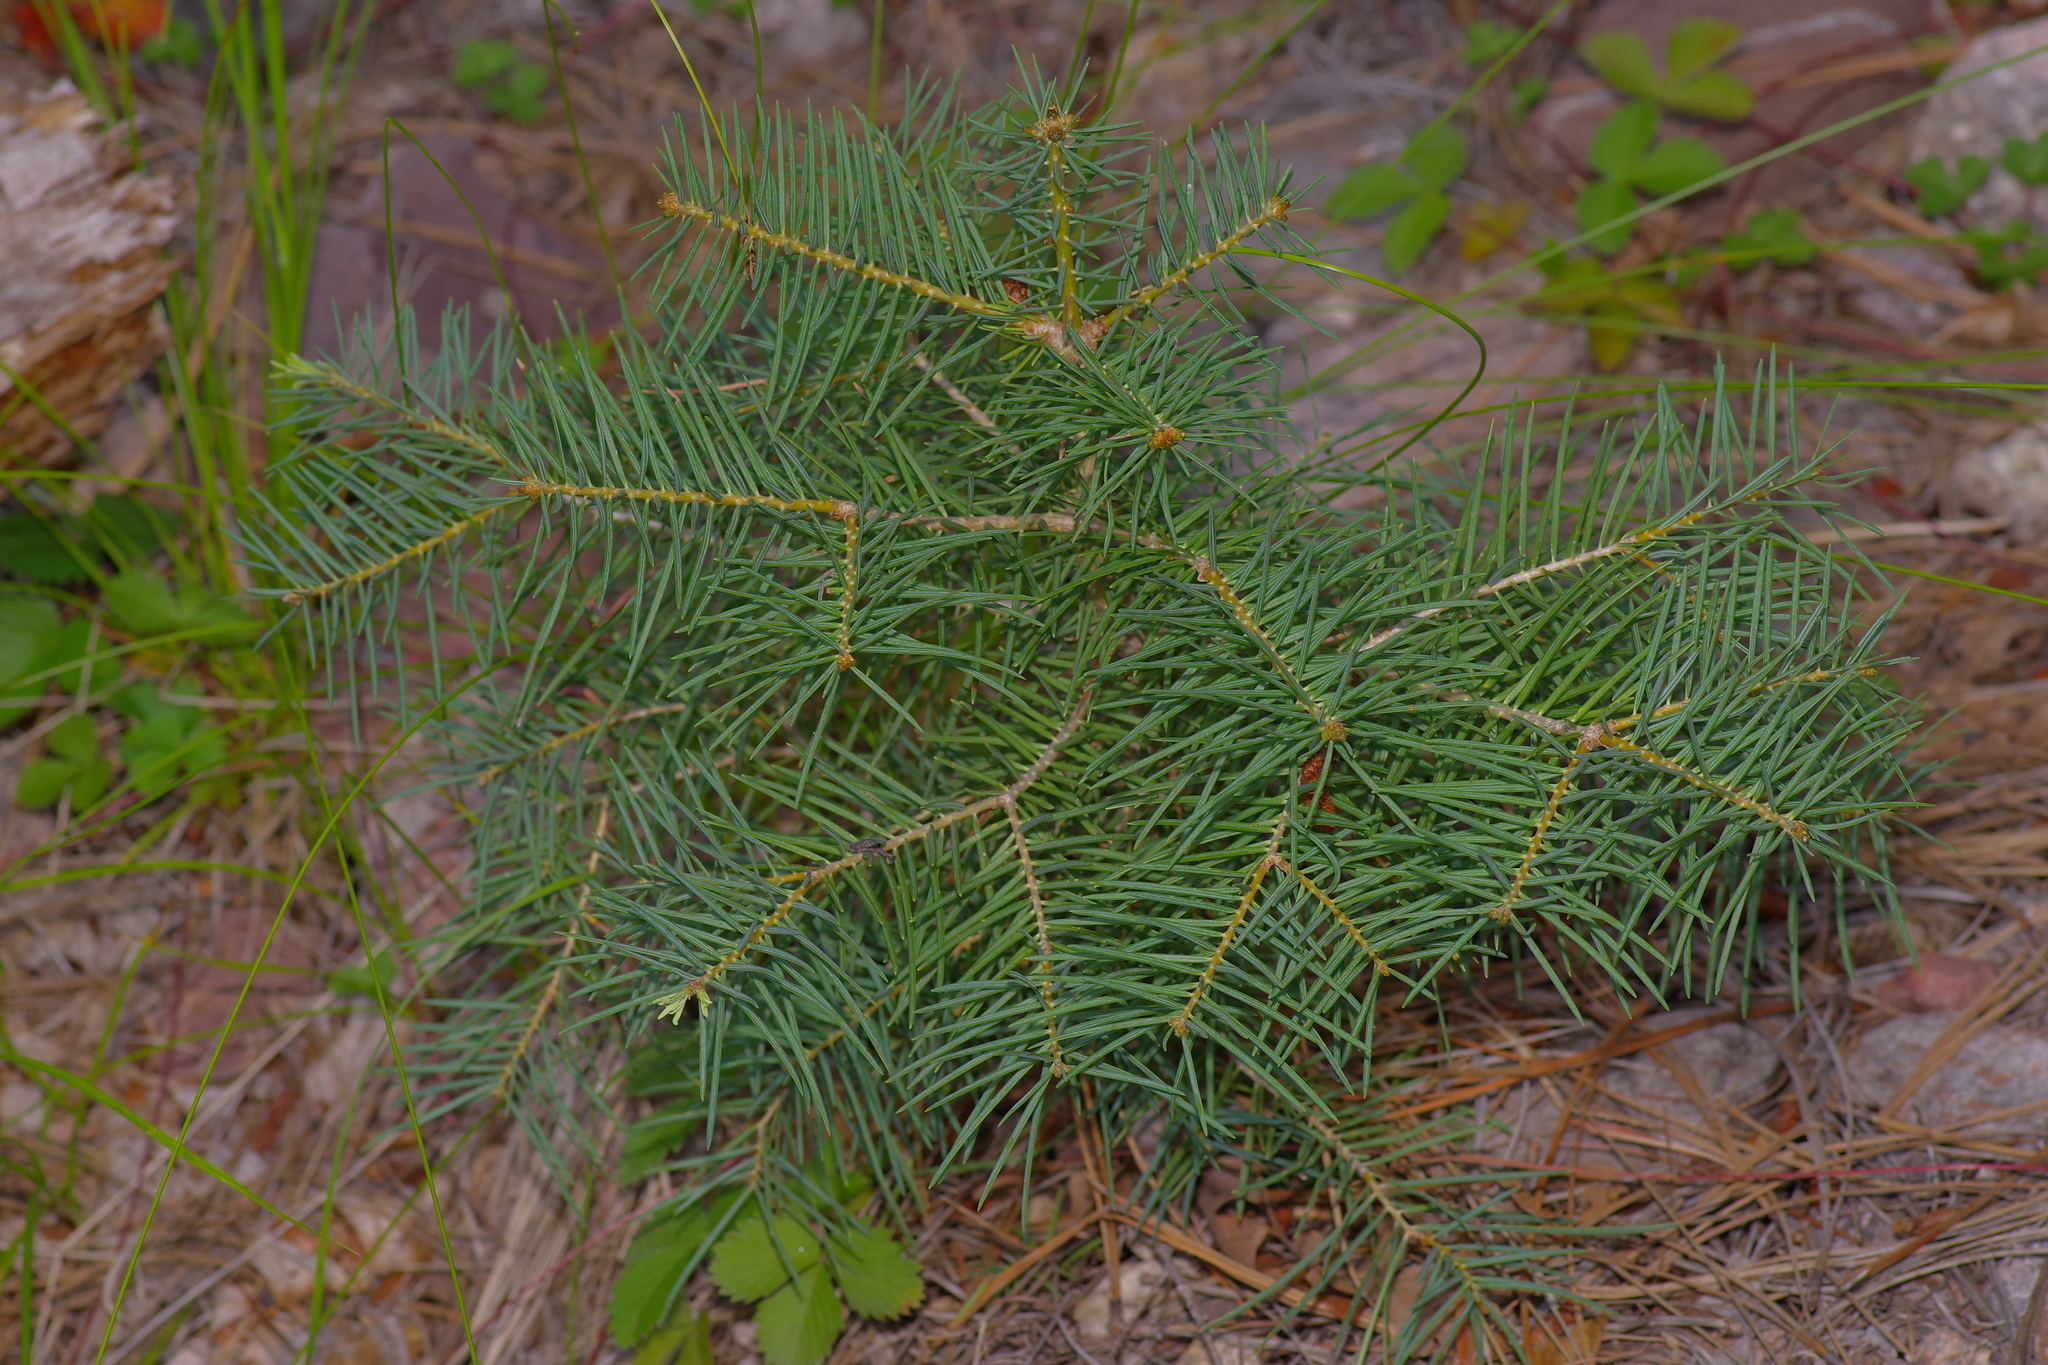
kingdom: Plantae
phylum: Tracheophyta
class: Pinopsida
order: Pinales
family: Pinaceae
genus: Abies
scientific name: Abies concolor
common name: Colorado fir
